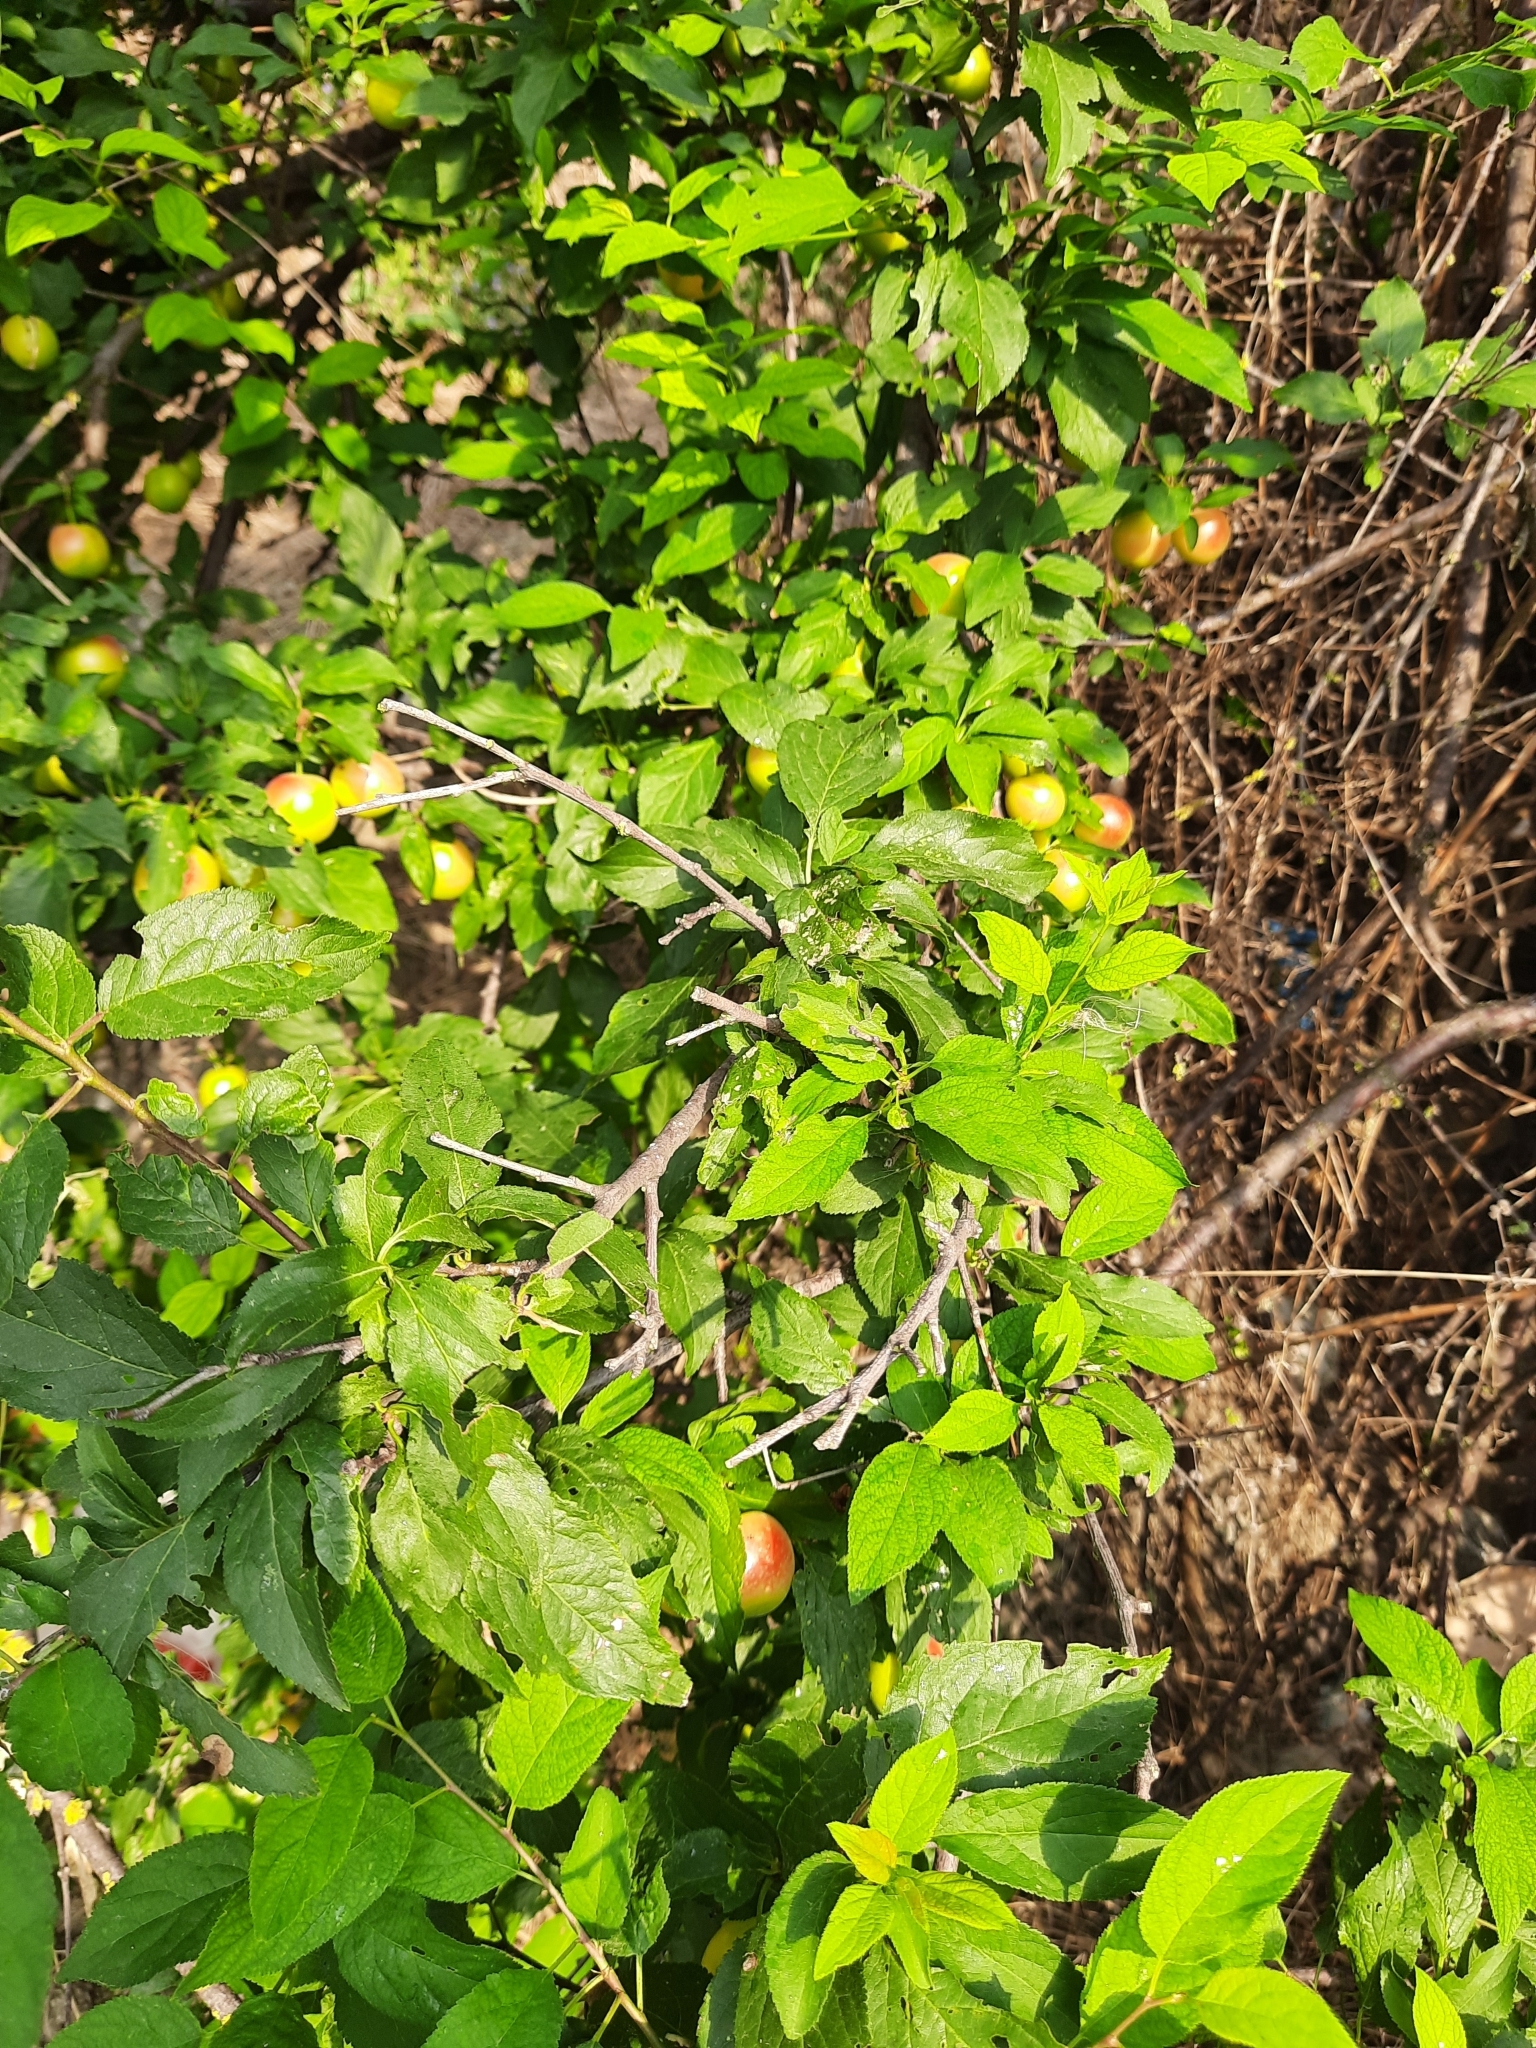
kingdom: Plantae
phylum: Tracheophyta
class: Magnoliopsida
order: Rosales
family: Rosaceae
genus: Prunus
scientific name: Prunus cerasifera
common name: Cherry plum
